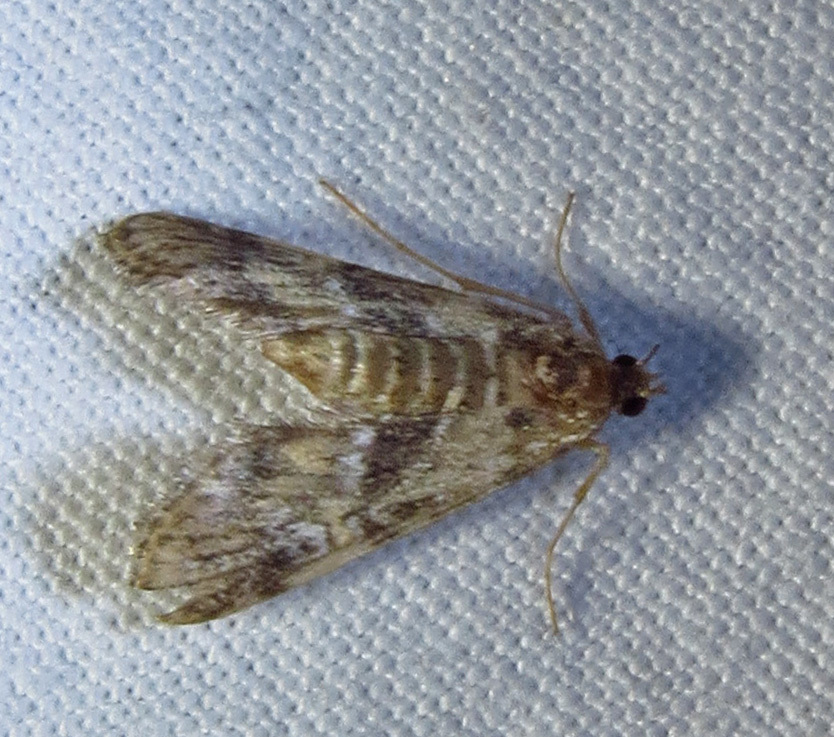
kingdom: Animalia
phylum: Arthropoda
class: Insecta
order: Lepidoptera
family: Crambidae
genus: Elophila
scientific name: Elophila obliteralis
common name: Waterlily leafcutter moth
